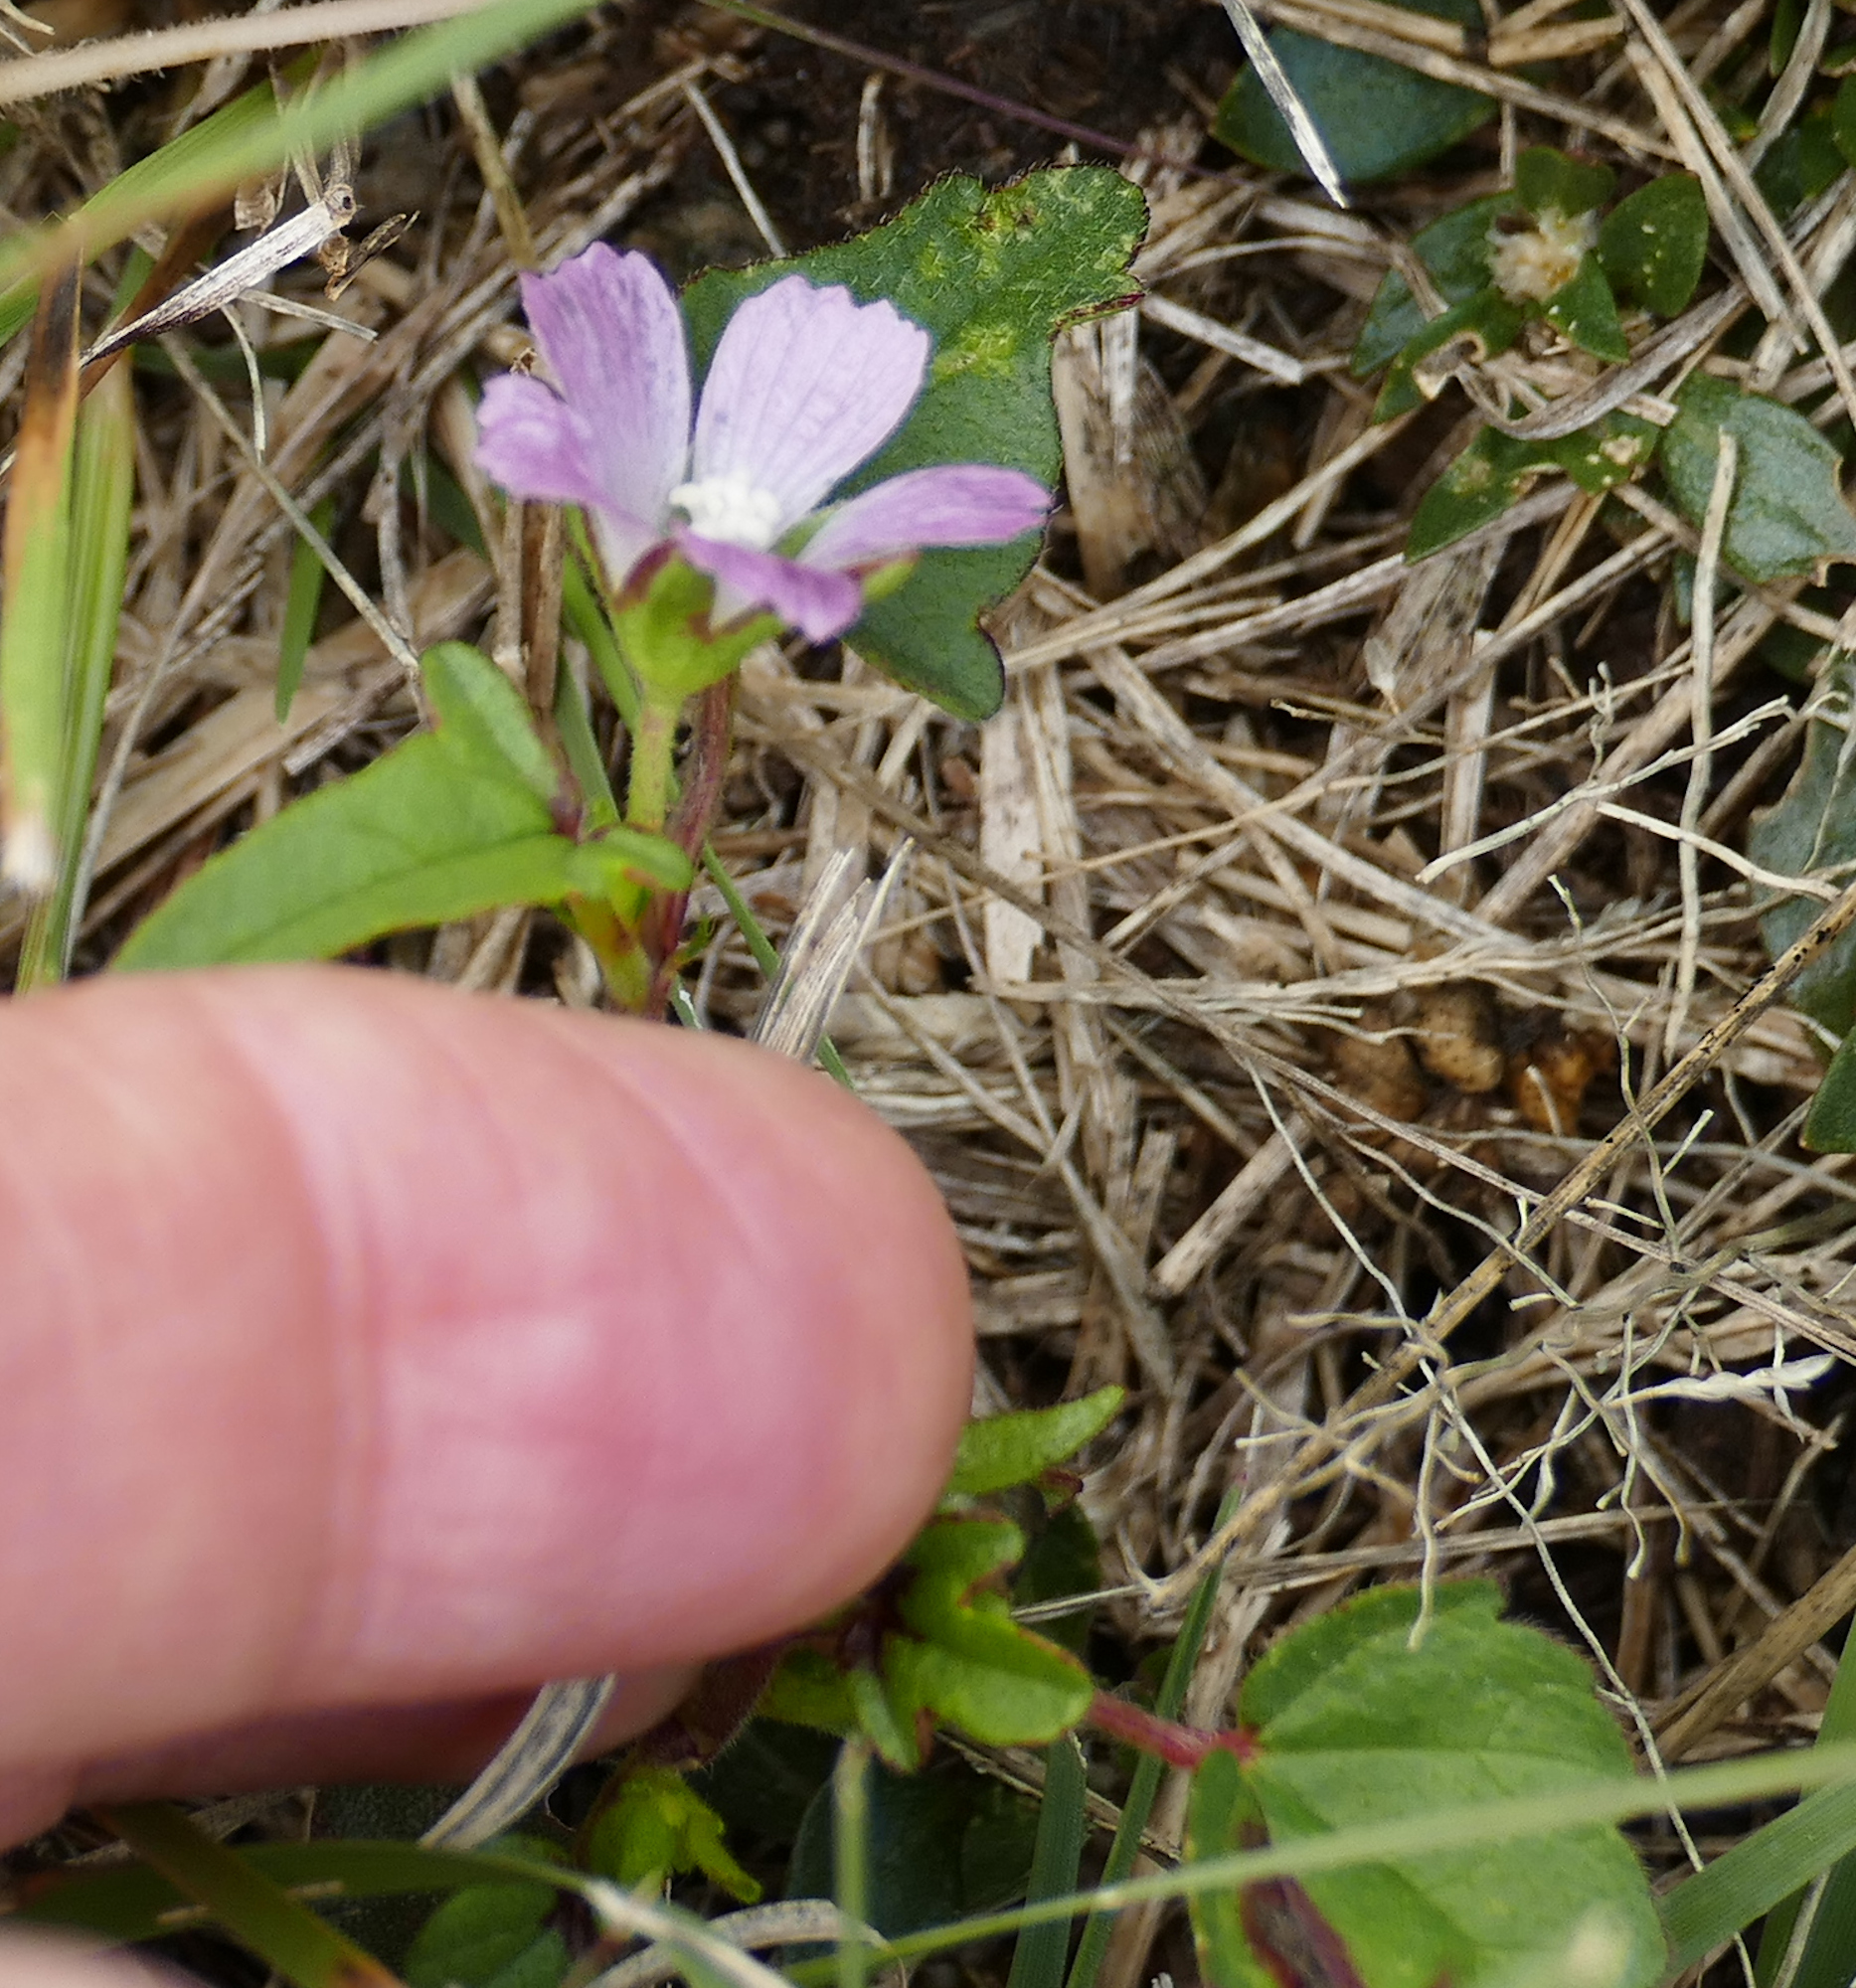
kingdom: Plantae
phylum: Tracheophyta
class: Magnoliopsida
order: Malvales
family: Malvaceae
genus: Anoda
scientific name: Anoda cristata
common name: Spurred anoda
